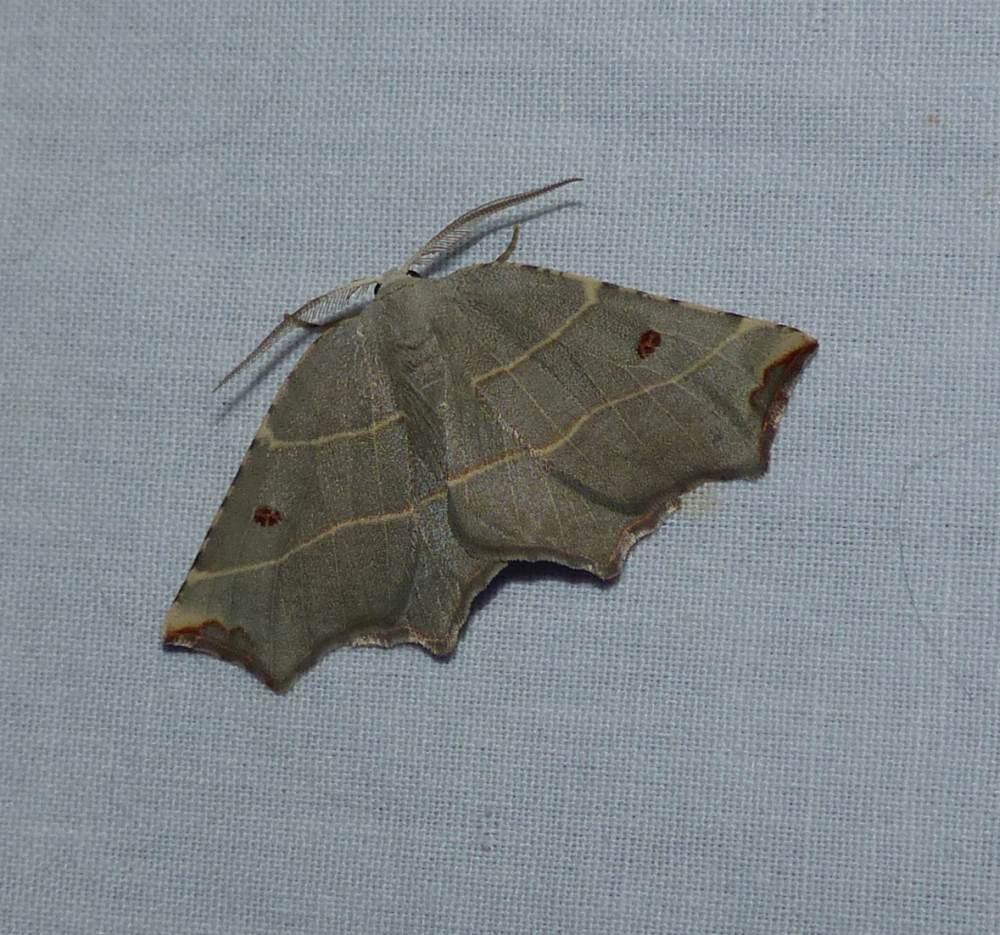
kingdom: Animalia
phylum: Arthropoda
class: Insecta
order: Lepidoptera
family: Geometridae
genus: Metanema
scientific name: Metanema inatomaria
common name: Pale metanema
